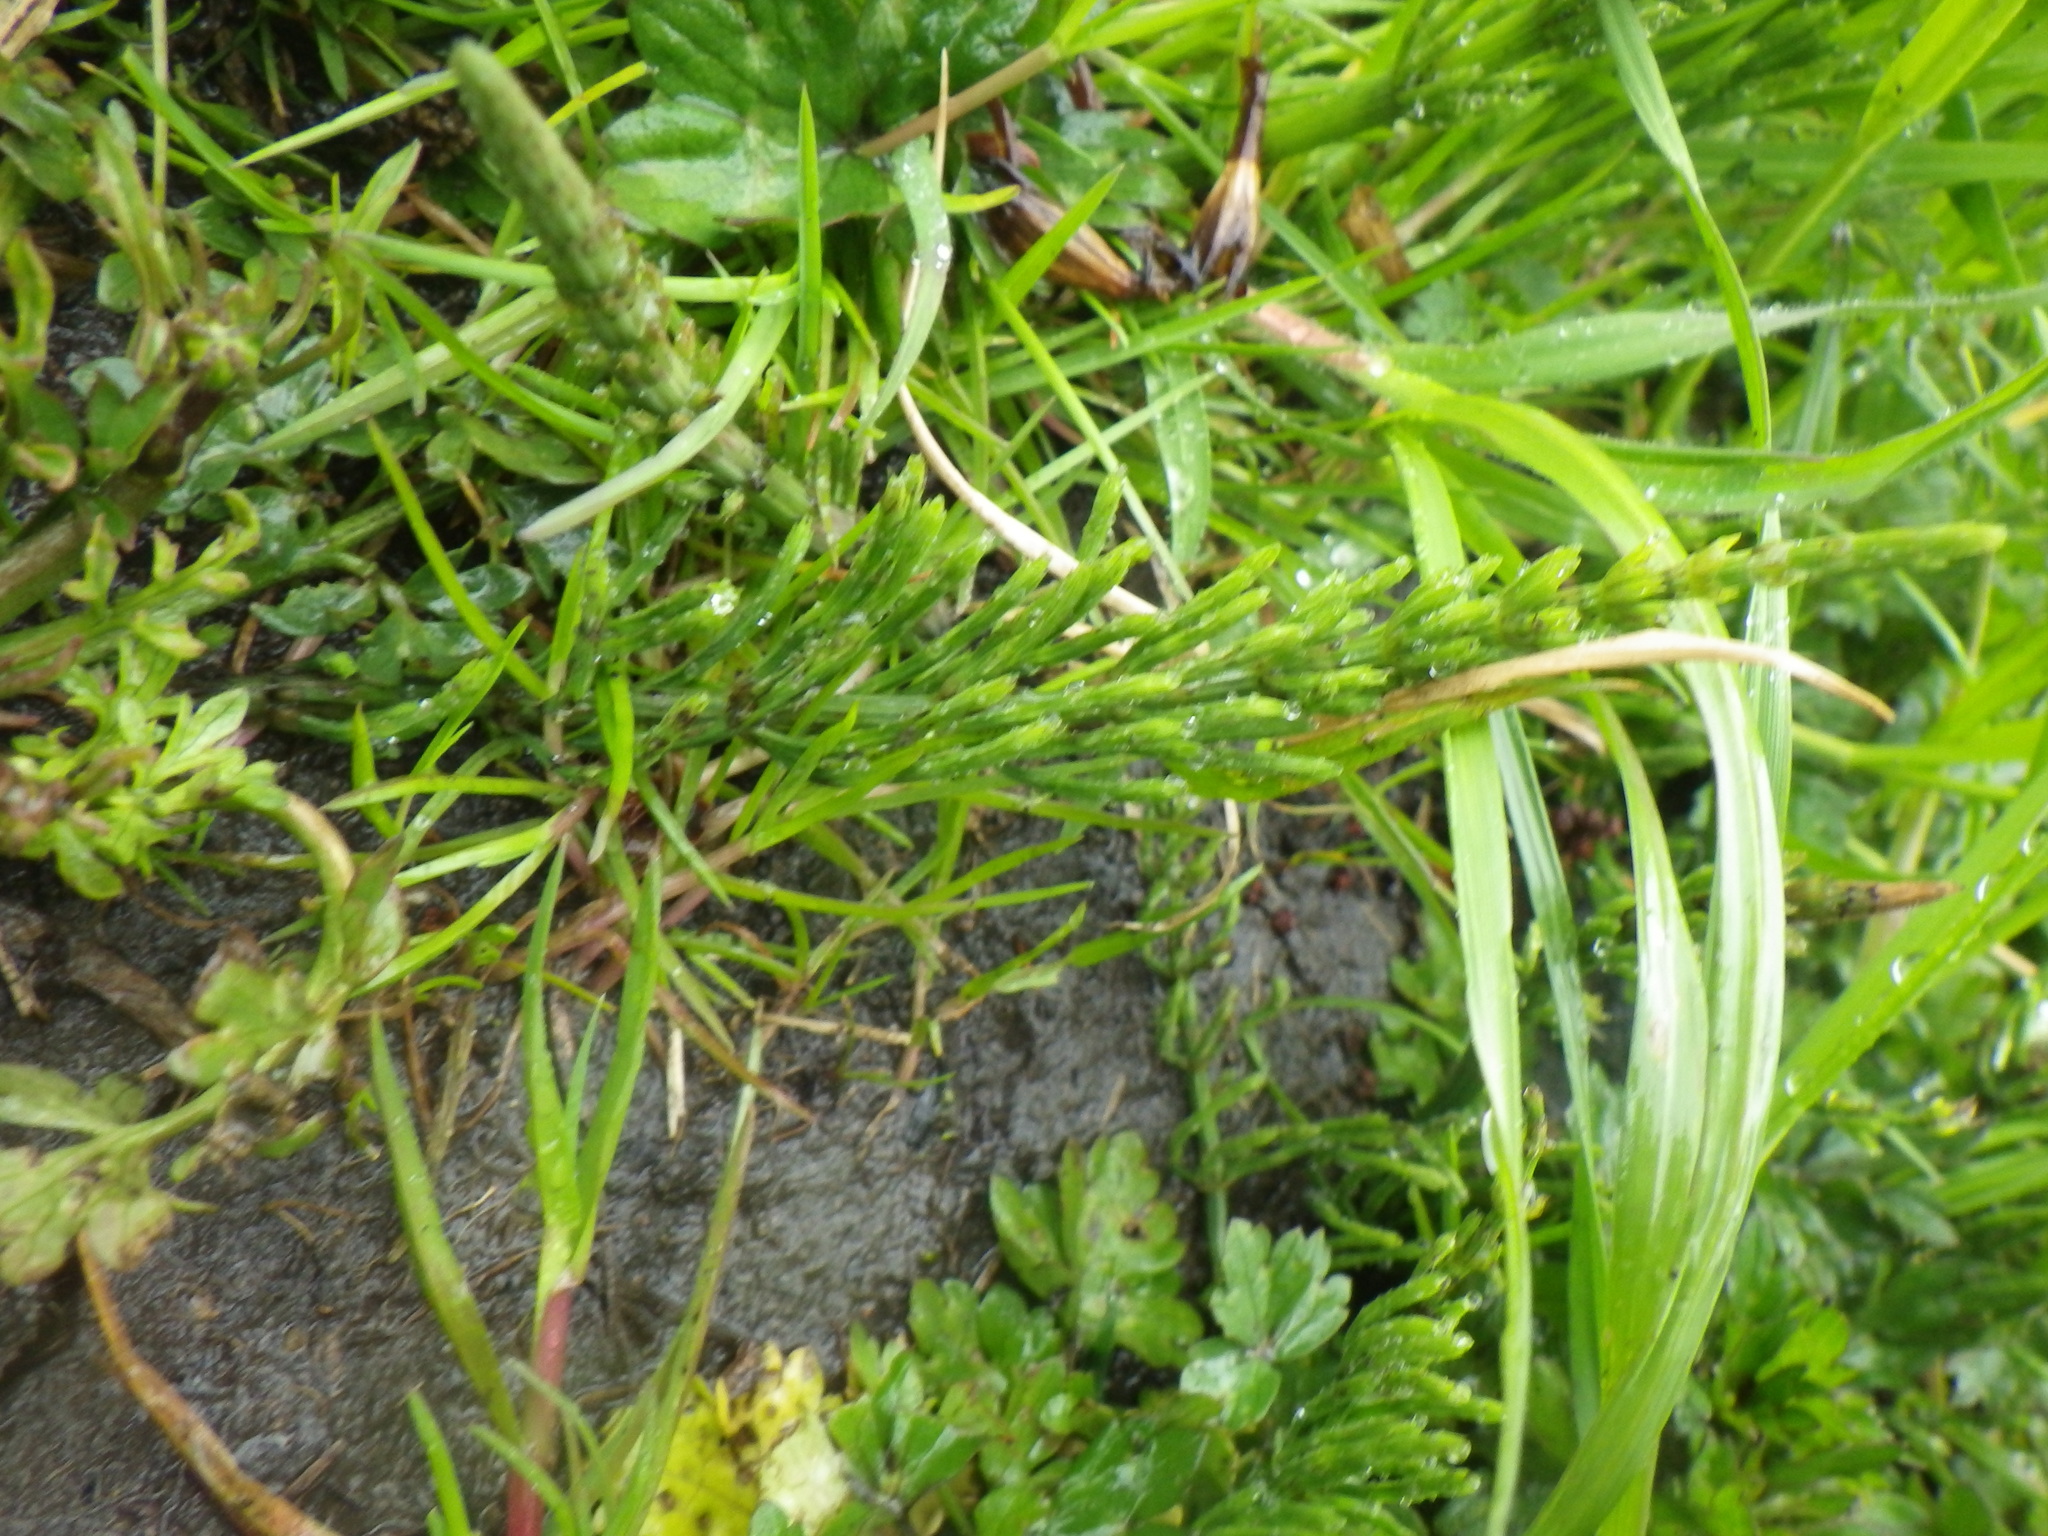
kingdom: Plantae
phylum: Tracheophyta
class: Polypodiopsida
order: Equisetales
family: Equisetaceae
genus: Equisetum
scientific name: Equisetum arvense
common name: Field horsetail
